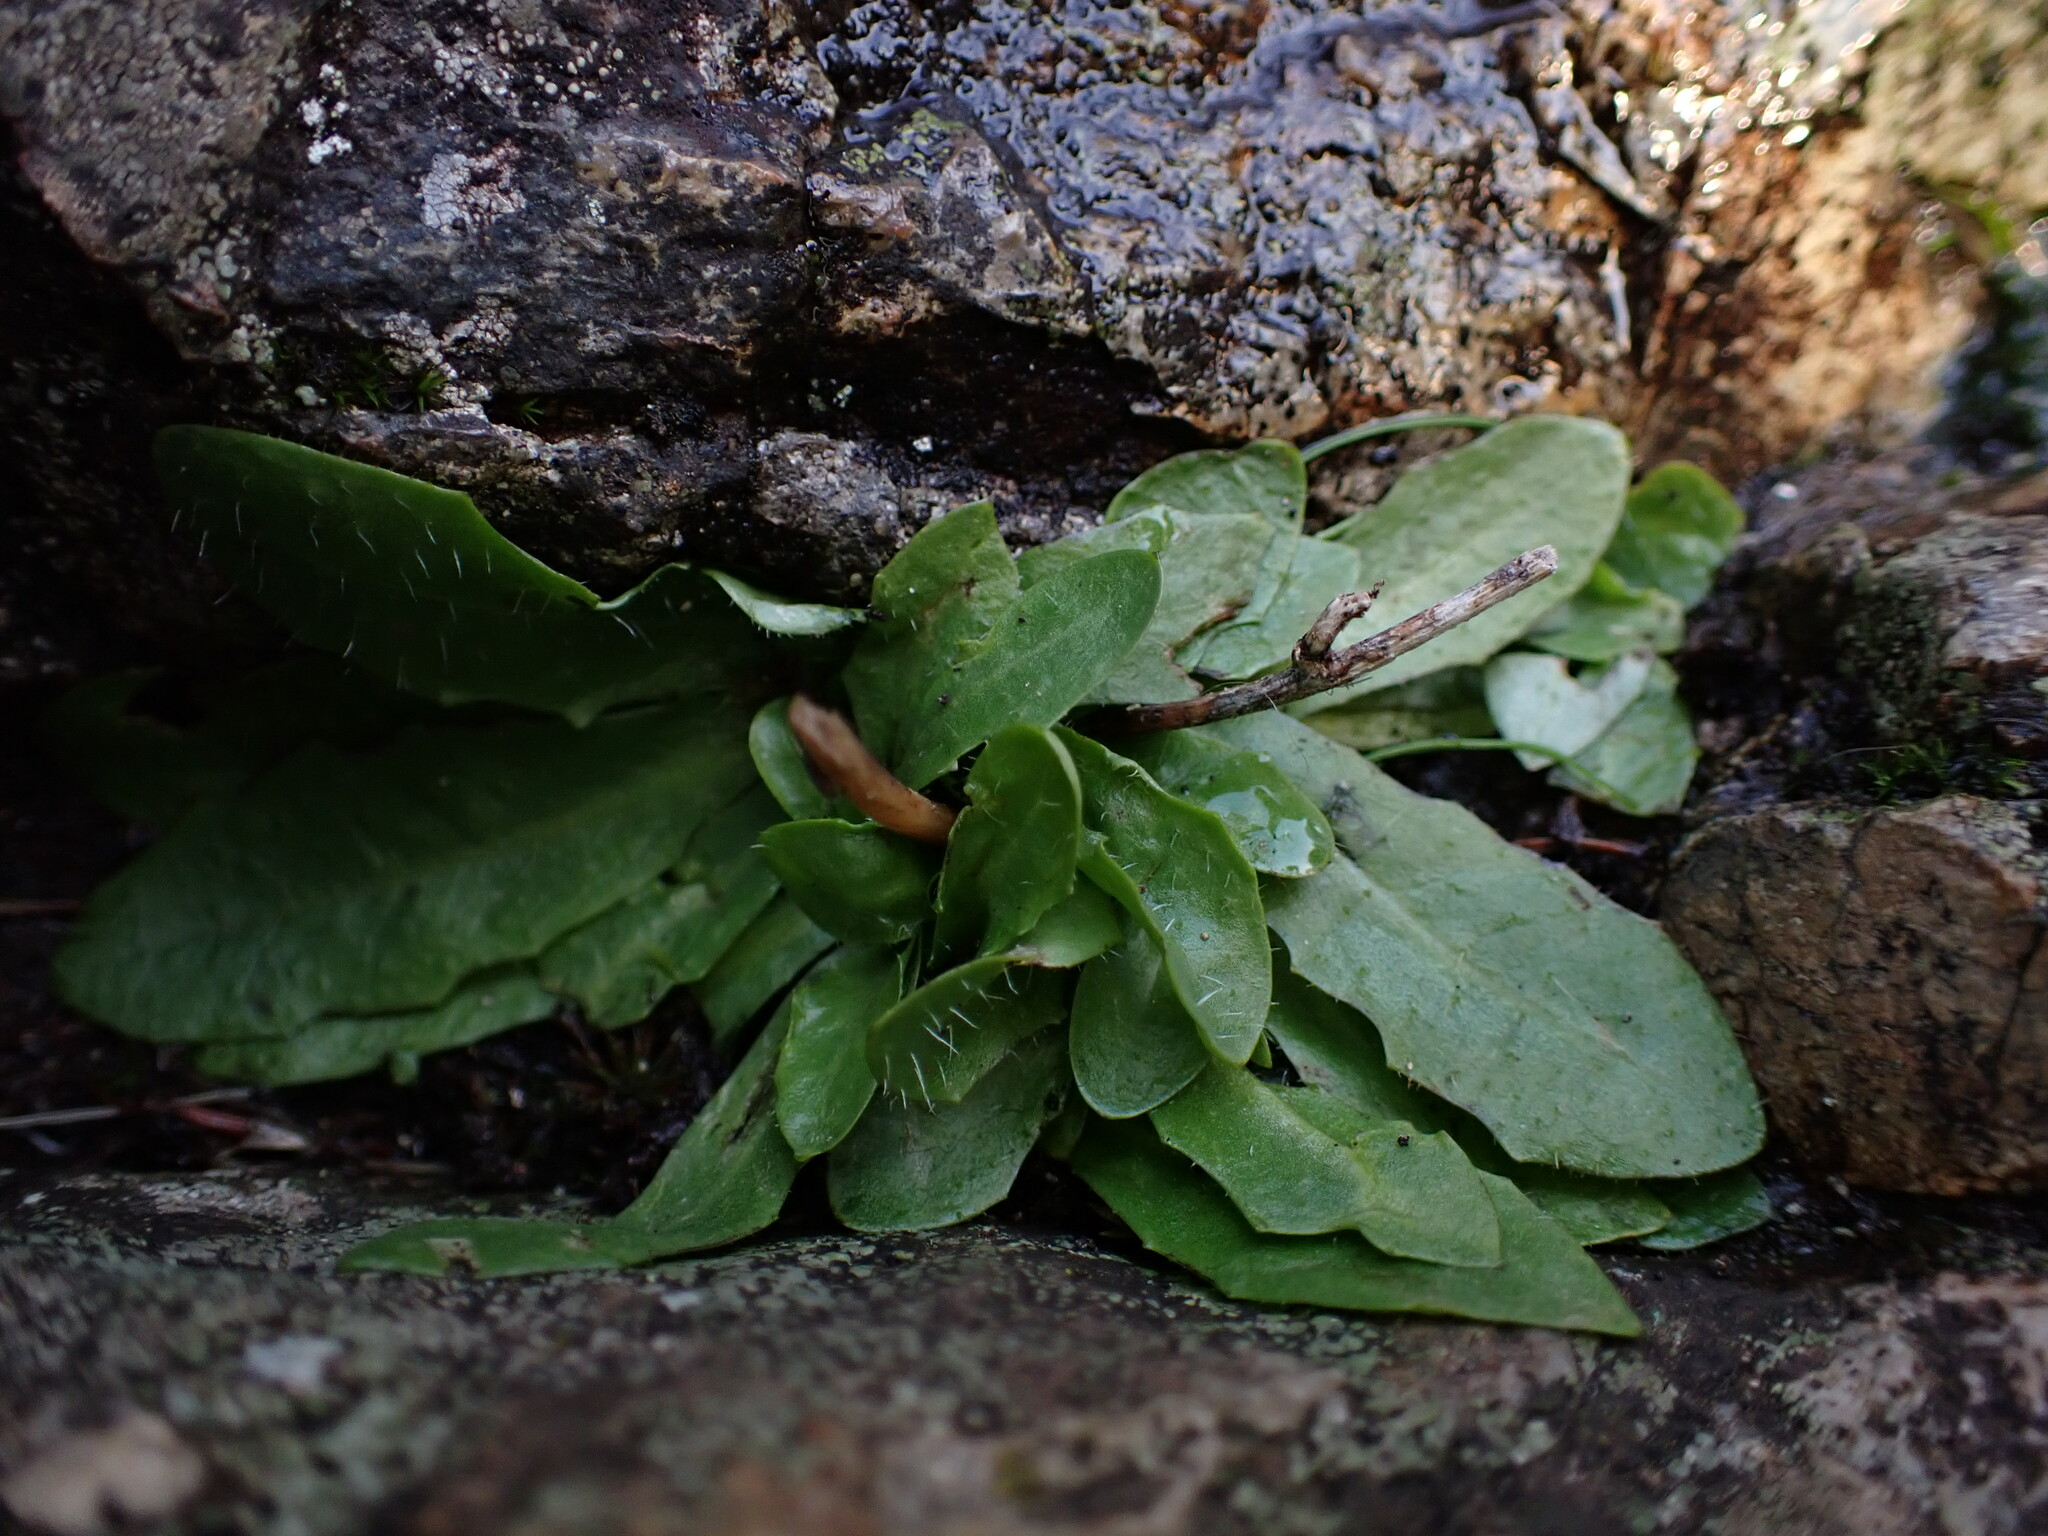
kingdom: Plantae
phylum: Tracheophyta
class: Magnoliopsida
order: Asterales
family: Asteraceae
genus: Hypochaeris
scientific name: Hypochaeris radicata
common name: Flatweed
